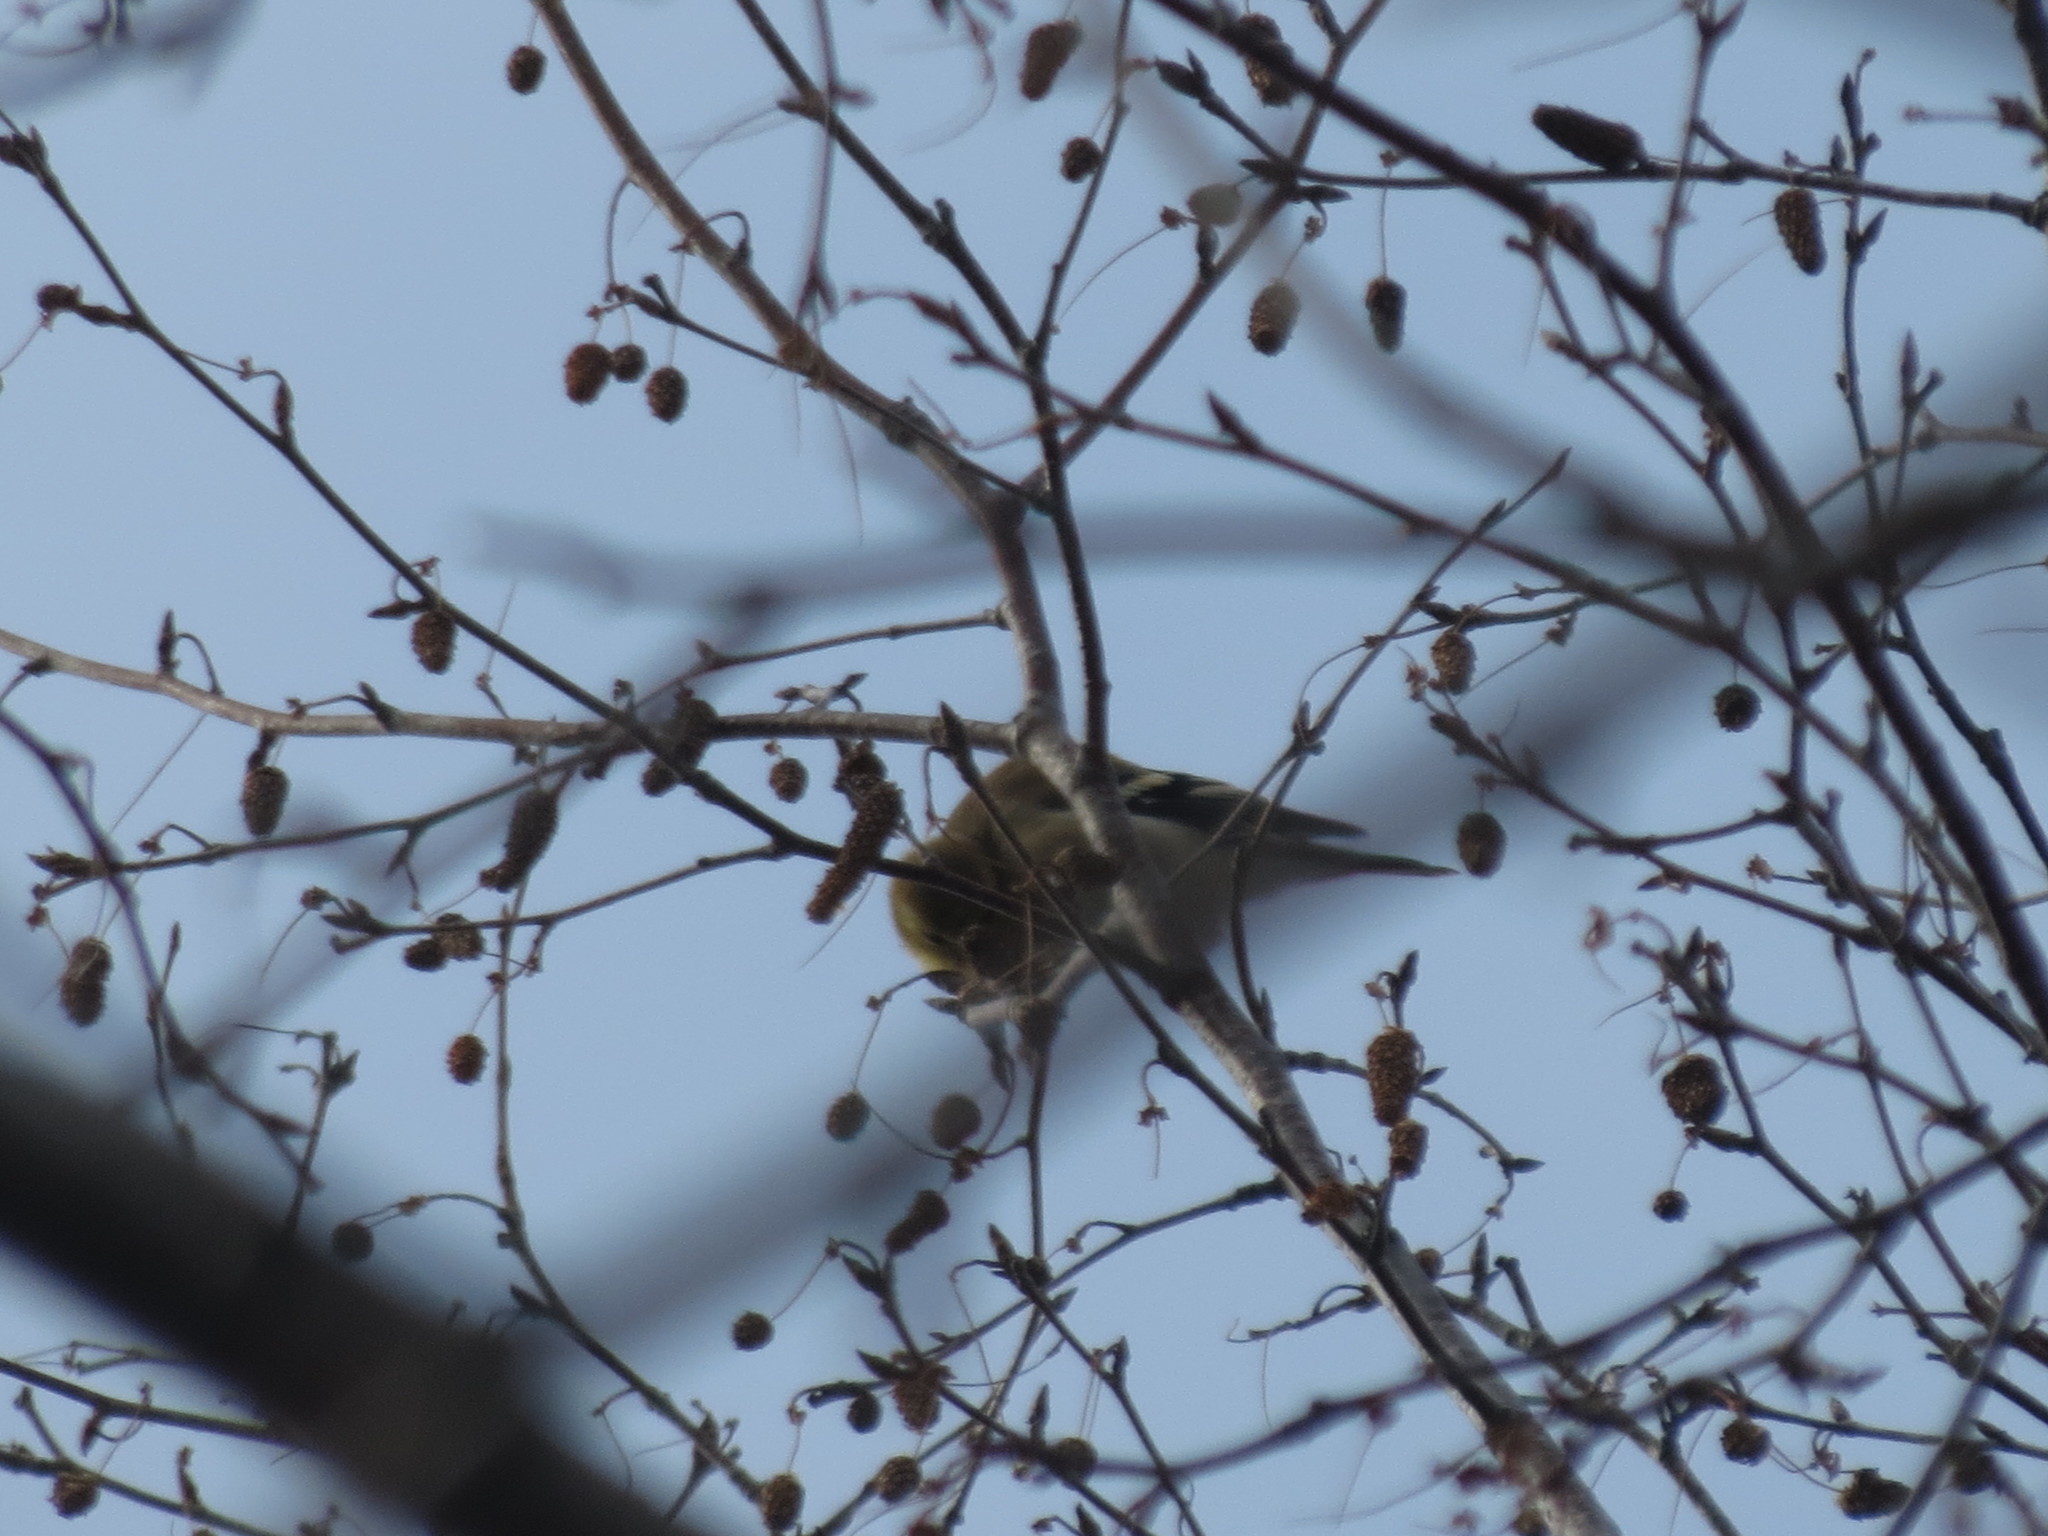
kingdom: Animalia
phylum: Chordata
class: Aves
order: Passeriformes
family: Fringillidae
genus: Spinus
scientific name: Spinus tristis
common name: American goldfinch
